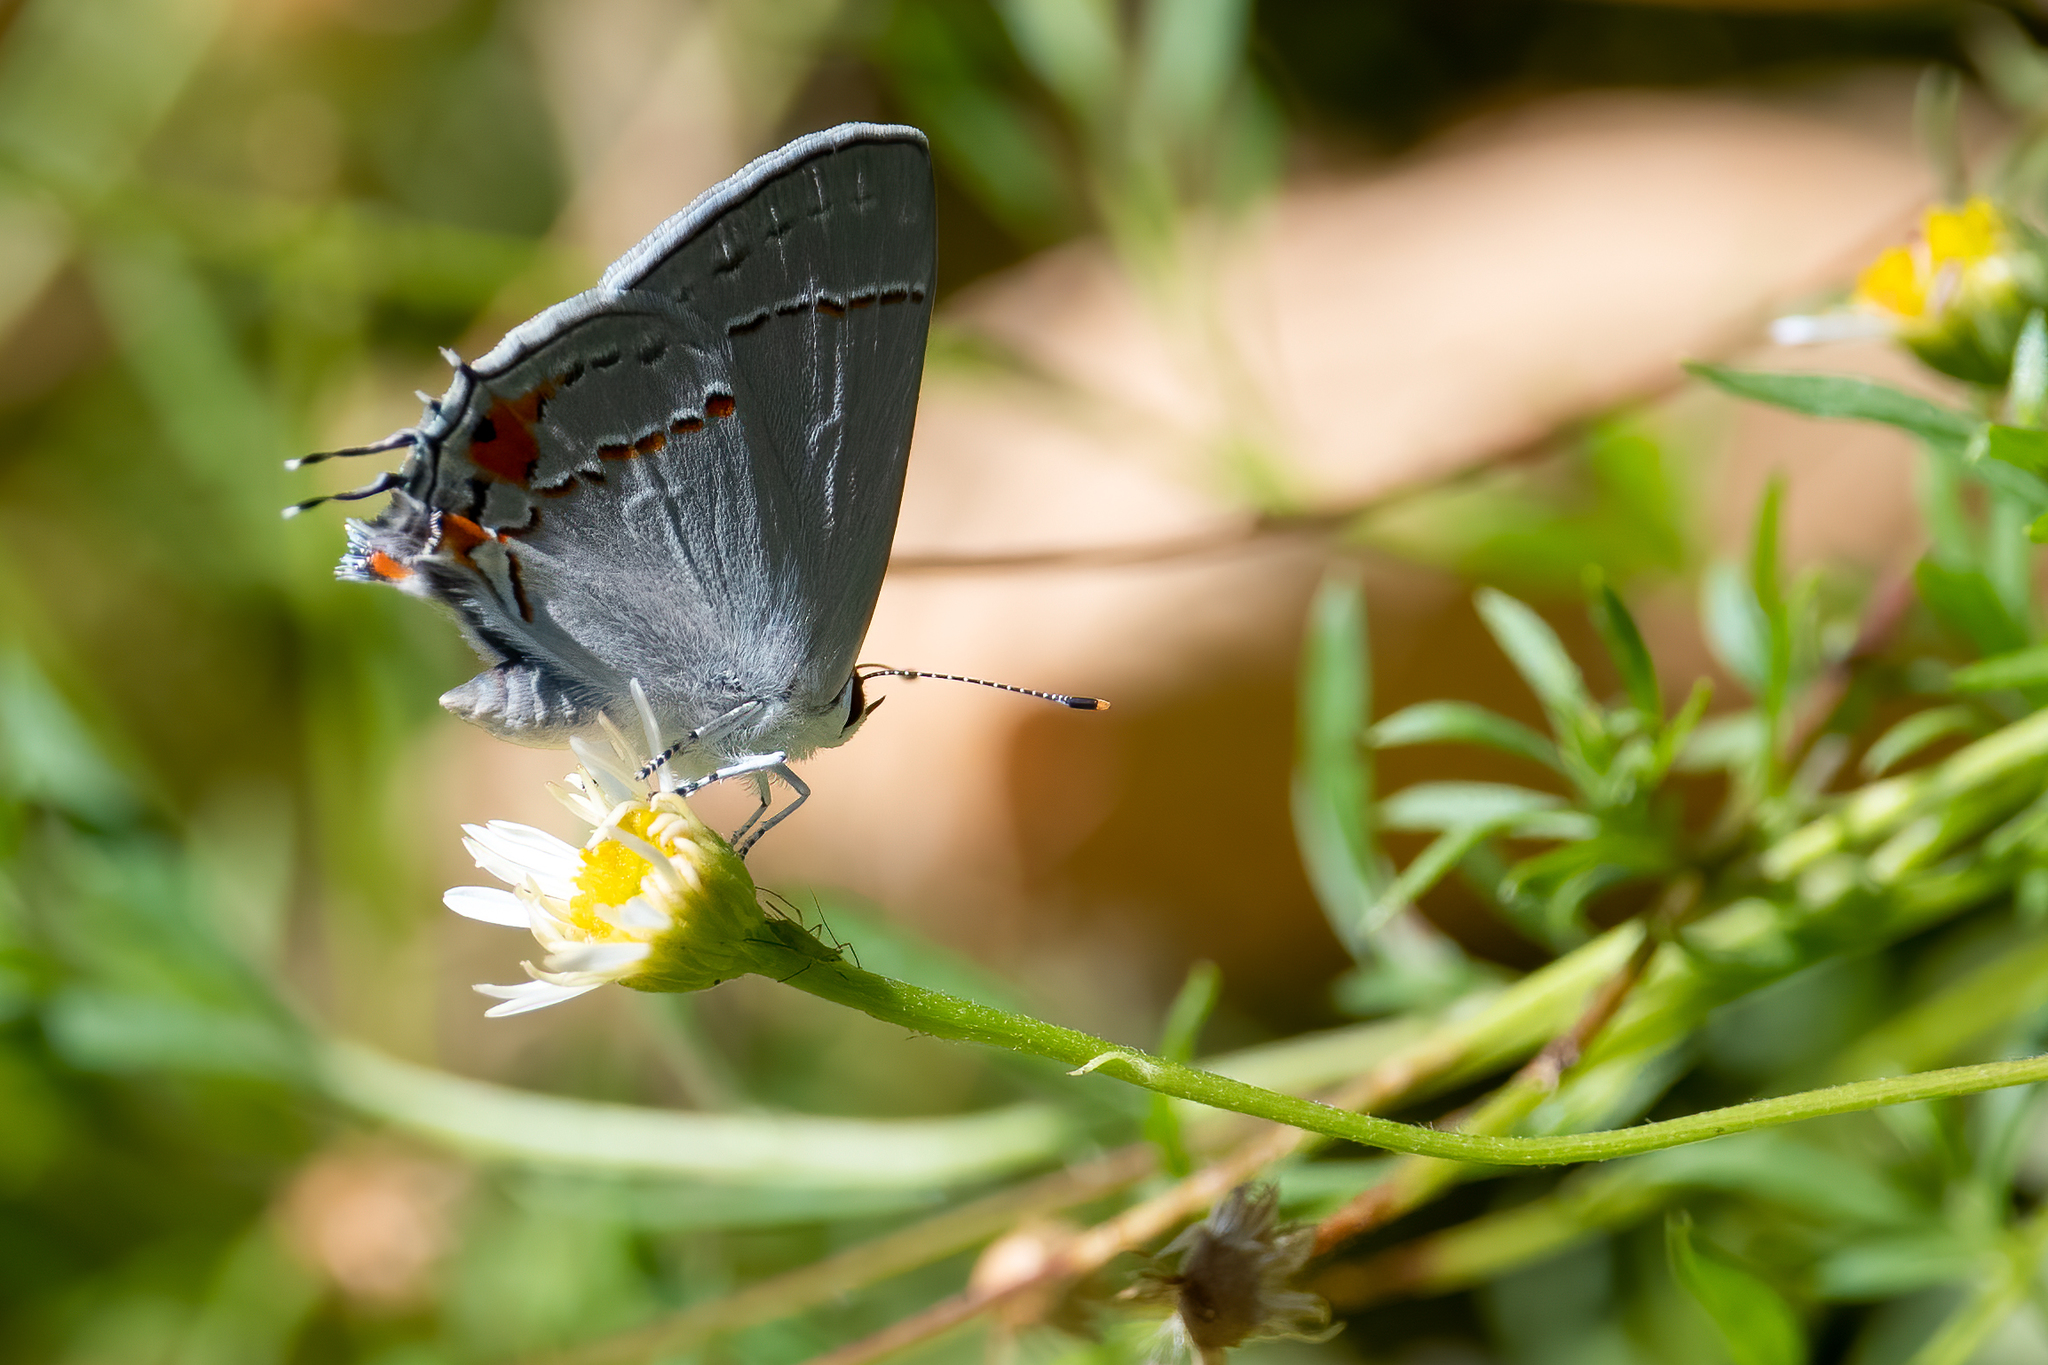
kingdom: Animalia
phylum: Arthropoda
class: Insecta
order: Lepidoptera
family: Lycaenidae
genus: Strymon
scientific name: Strymon melinus
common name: Gray hairstreak
